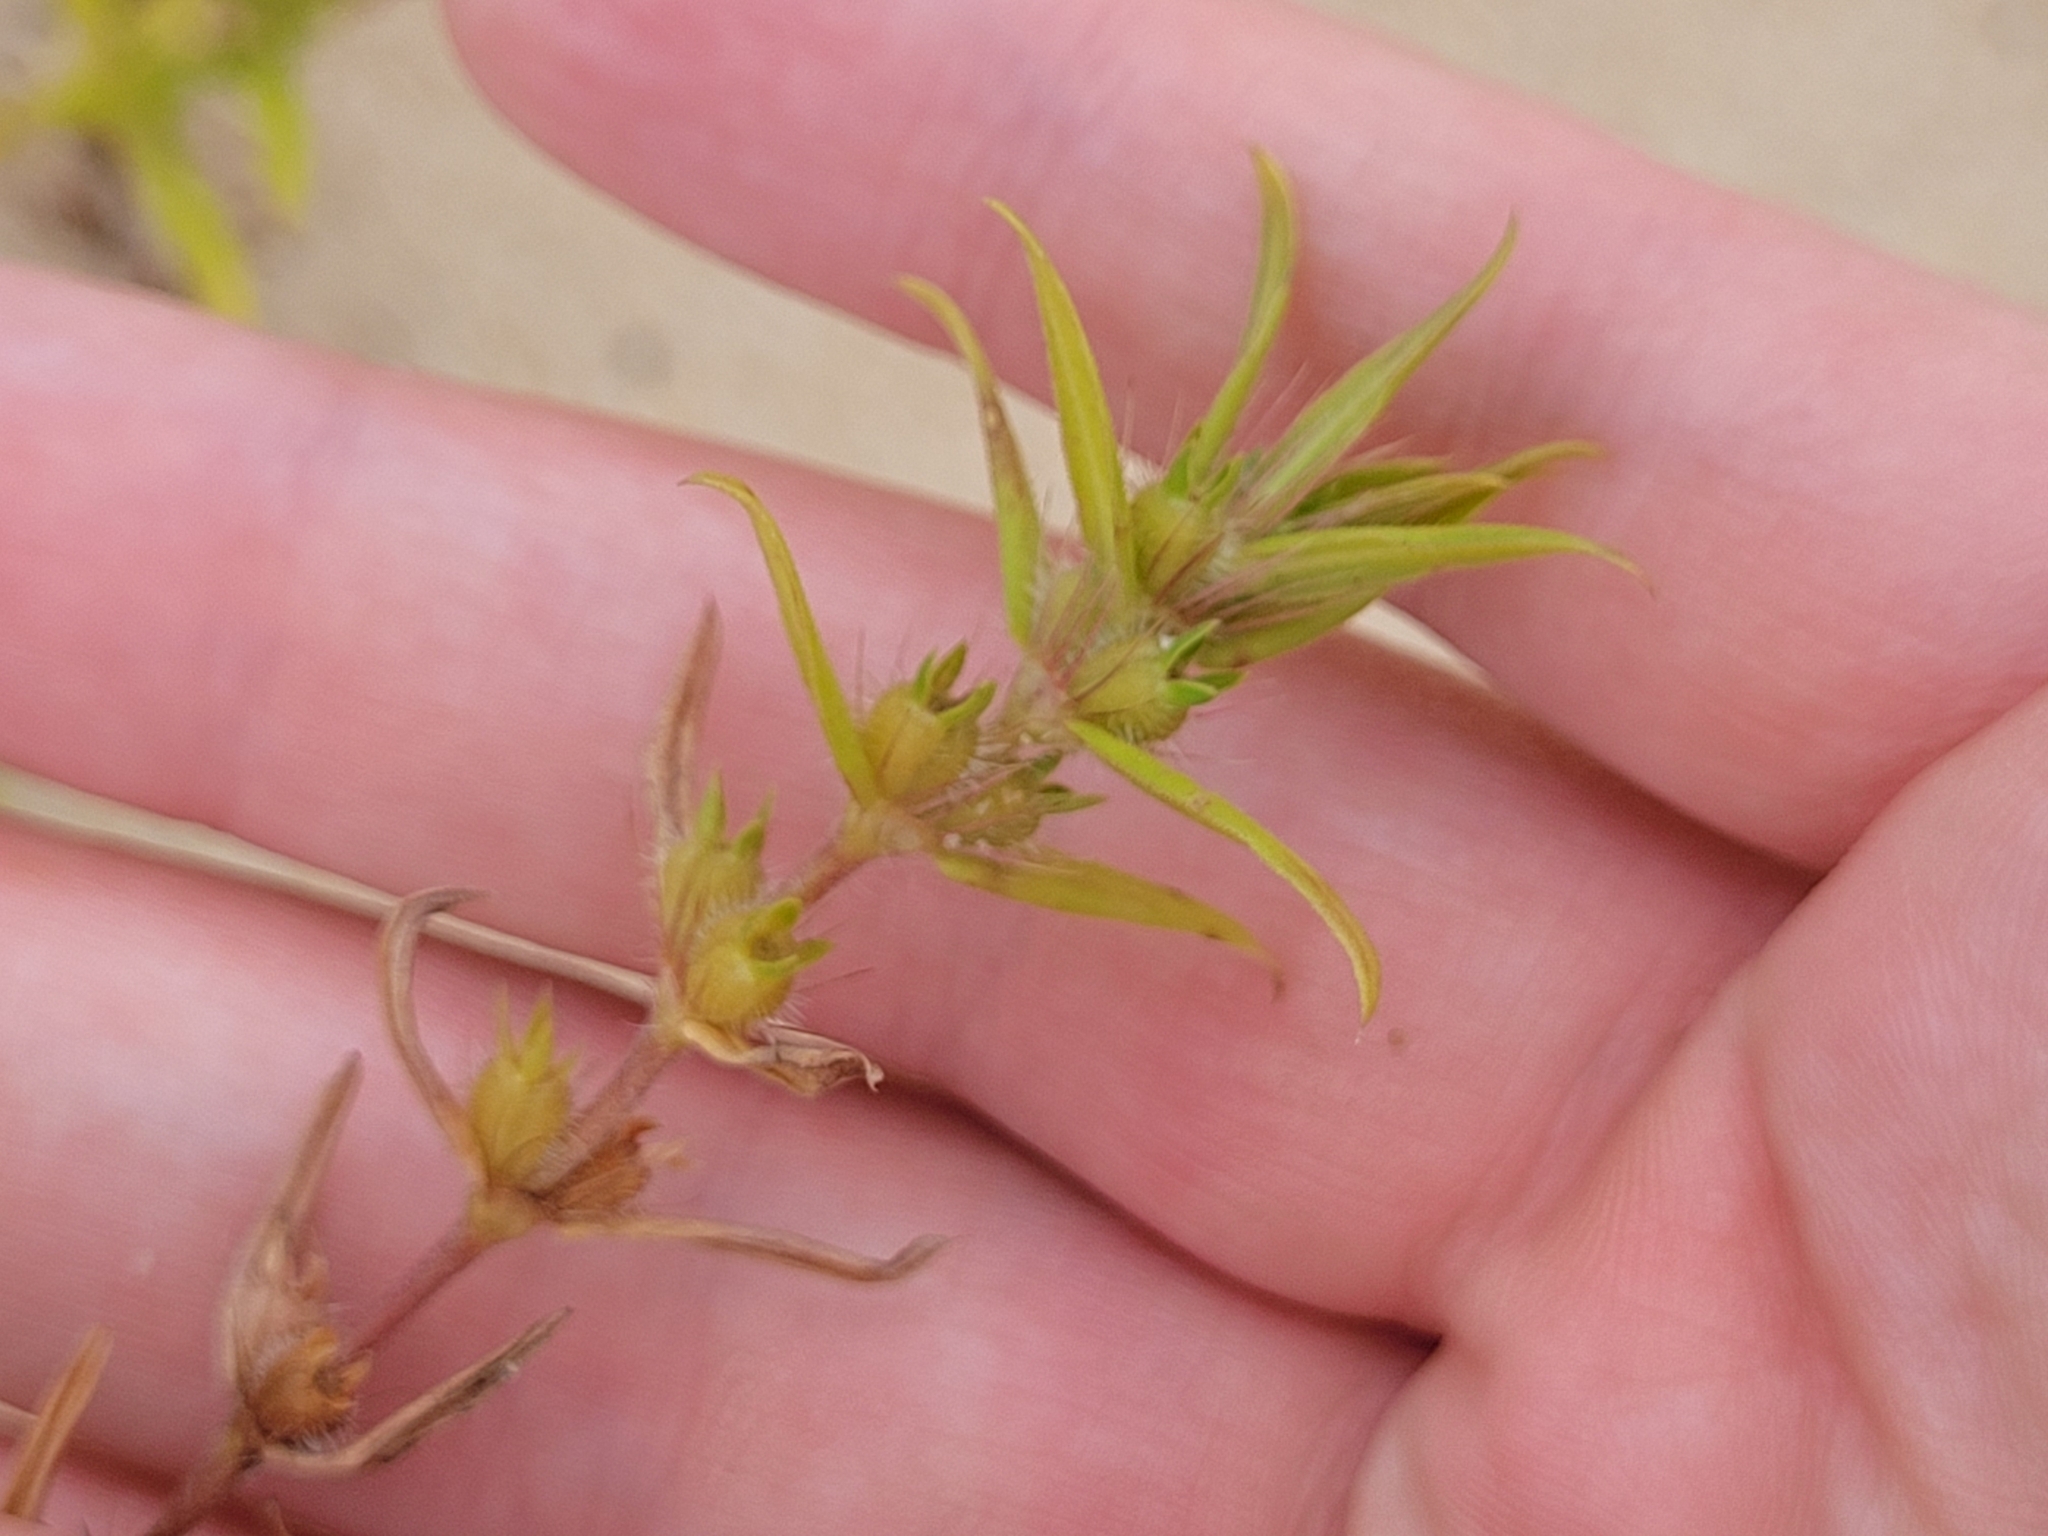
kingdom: Plantae
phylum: Tracheophyta
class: Magnoliopsida
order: Gentianales
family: Rubiaceae
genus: Hexasepalum
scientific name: Hexasepalum teres
